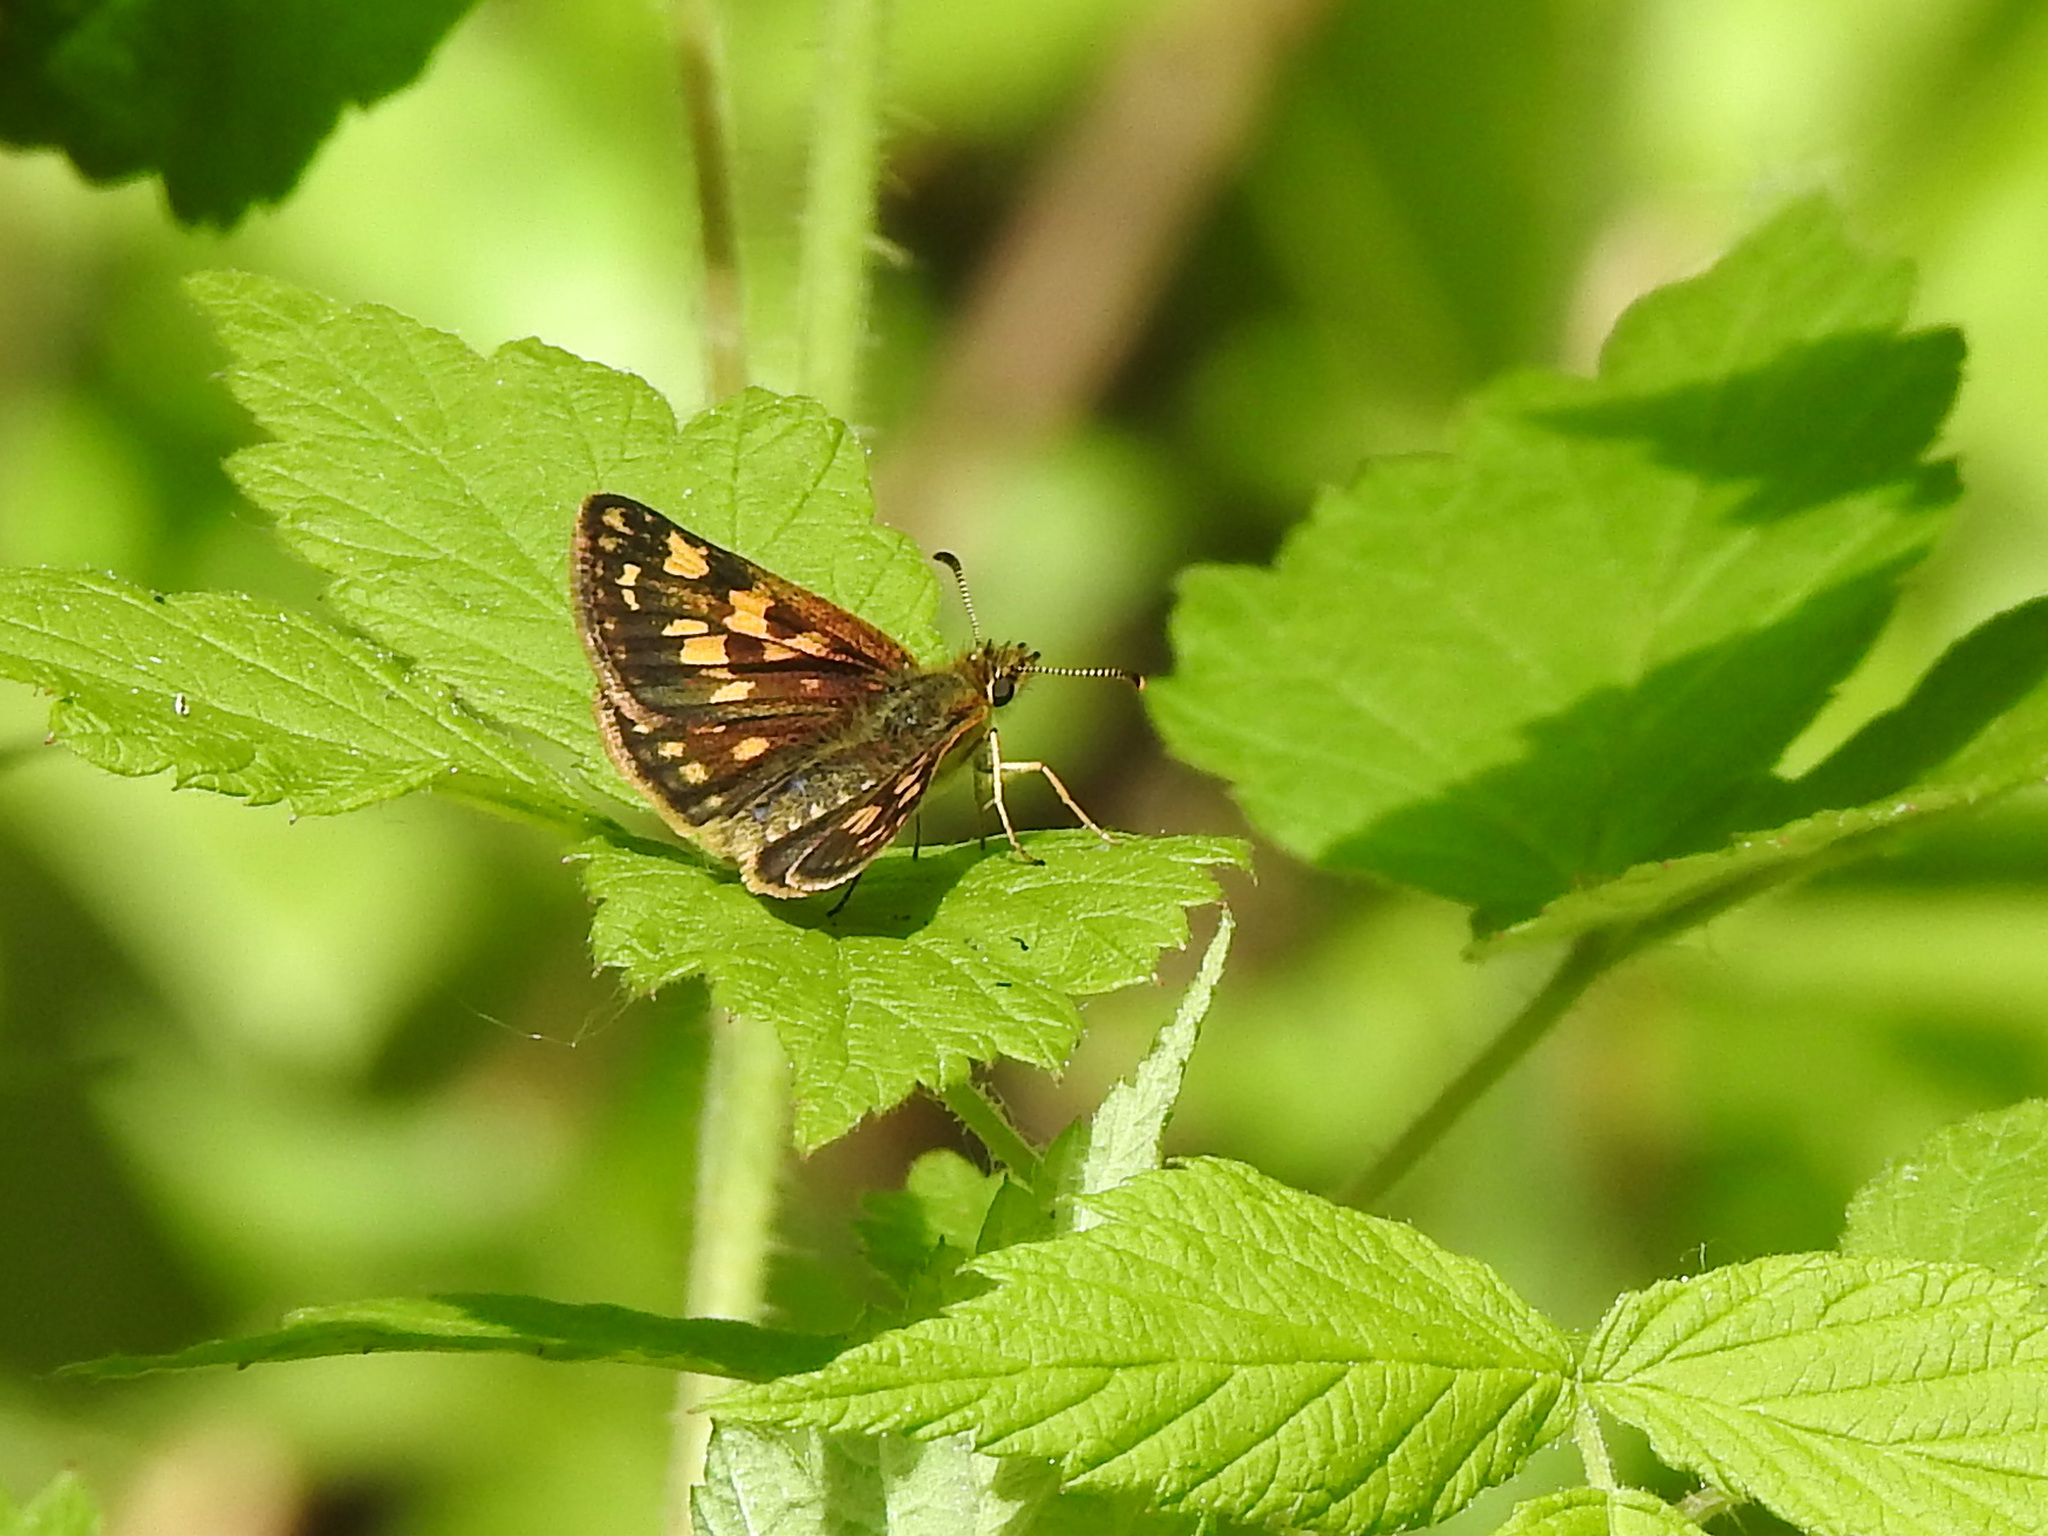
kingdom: Animalia
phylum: Arthropoda
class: Insecta
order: Lepidoptera
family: Hesperiidae
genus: Carterocephalus
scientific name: Carterocephalus mandan
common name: Arctic skipperling
